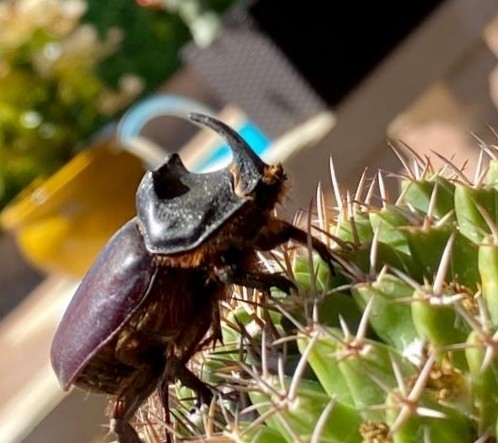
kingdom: Animalia
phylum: Arthropoda
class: Insecta
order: Coleoptera
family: Scarabaeidae
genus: Oryctes
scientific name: Oryctes nasicornis
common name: European rhinoceros beetle
